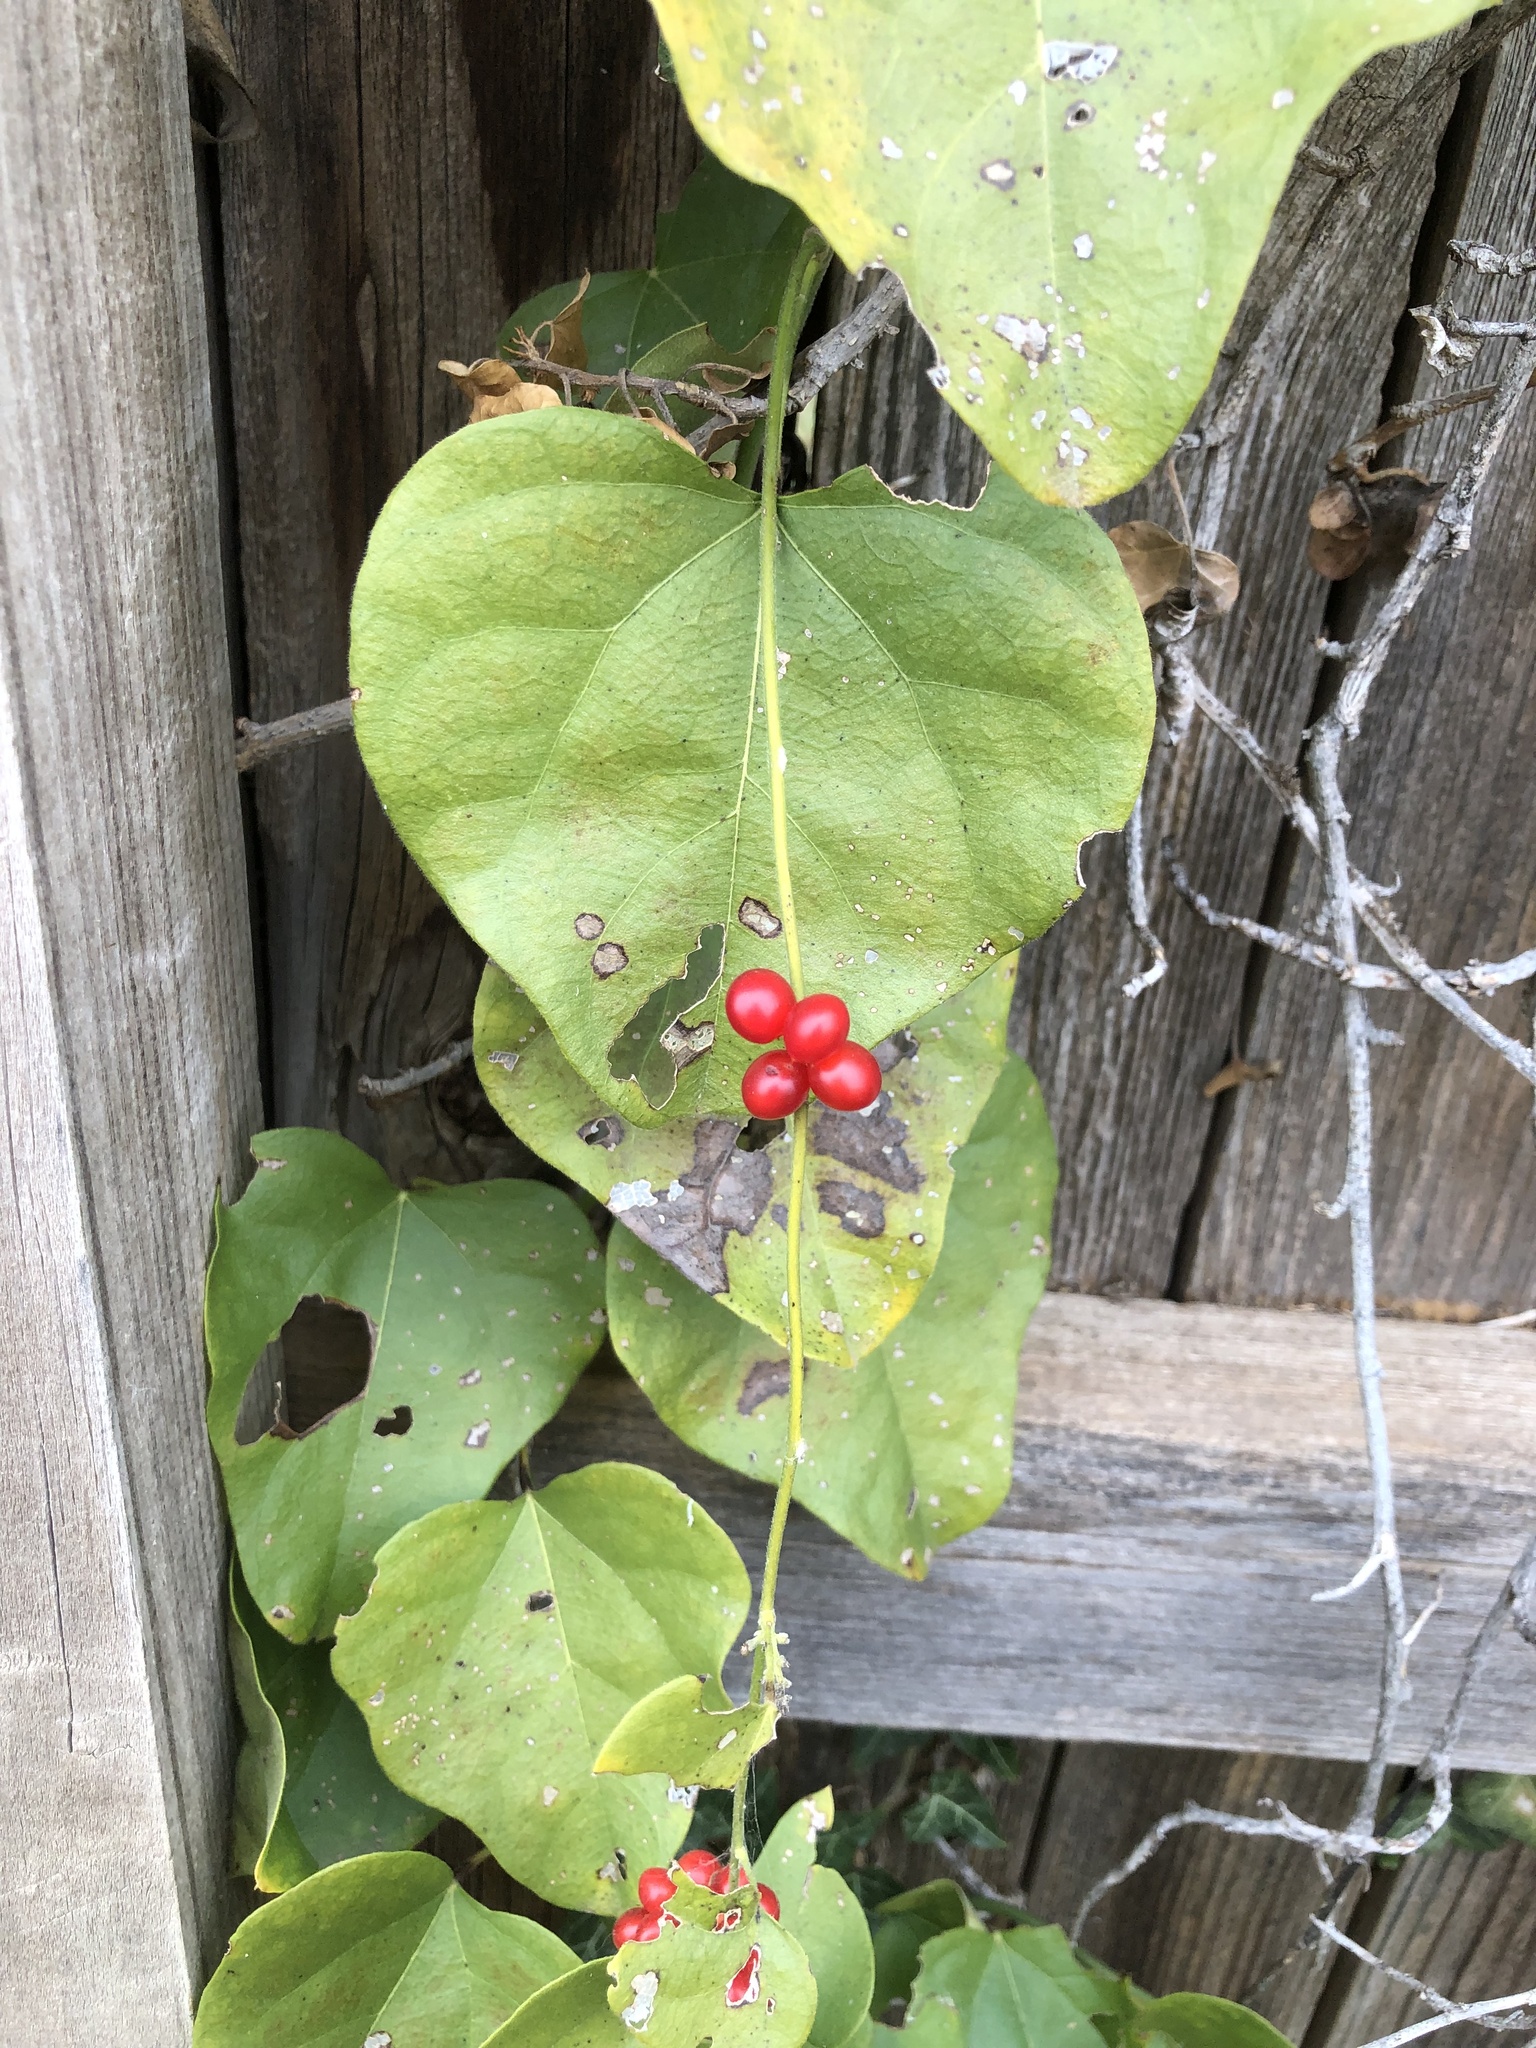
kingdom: Plantae
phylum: Tracheophyta
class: Magnoliopsida
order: Ranunculales
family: Menispermaceae
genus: Cocculus
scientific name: Cocculus carolinus
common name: Carolina moonseed
